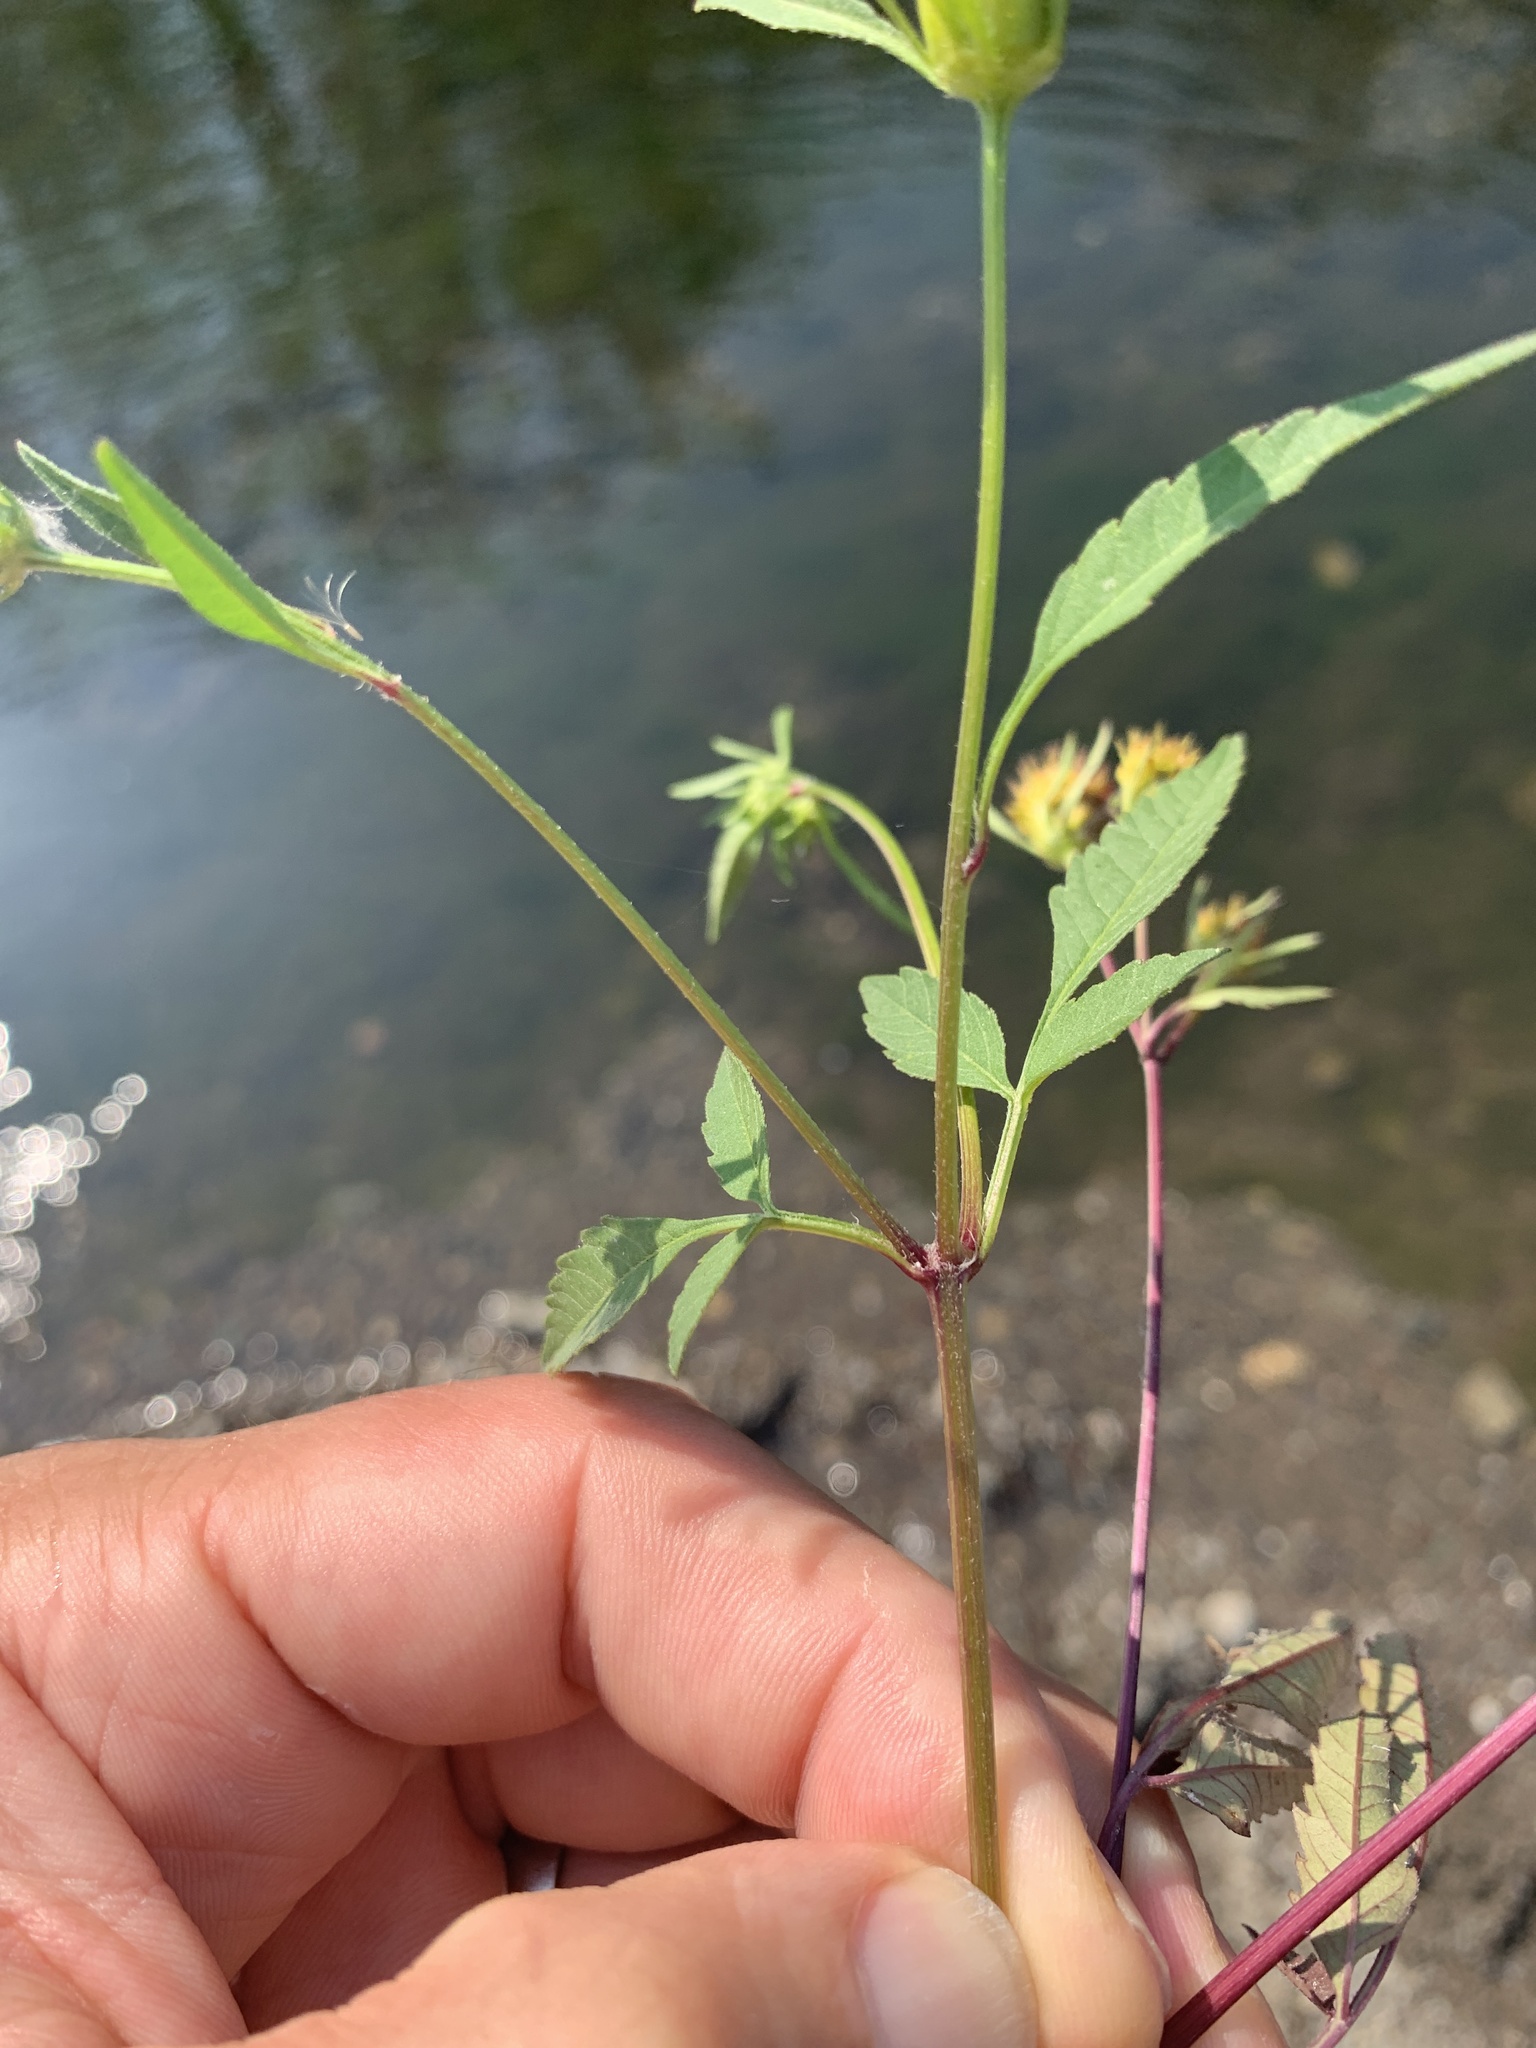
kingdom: Plantae
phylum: Tracheophyta
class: Magnoliopsida
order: Asterales
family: Asteraceae
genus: Bidens
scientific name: Bidens frondosa
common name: Beggarticks
